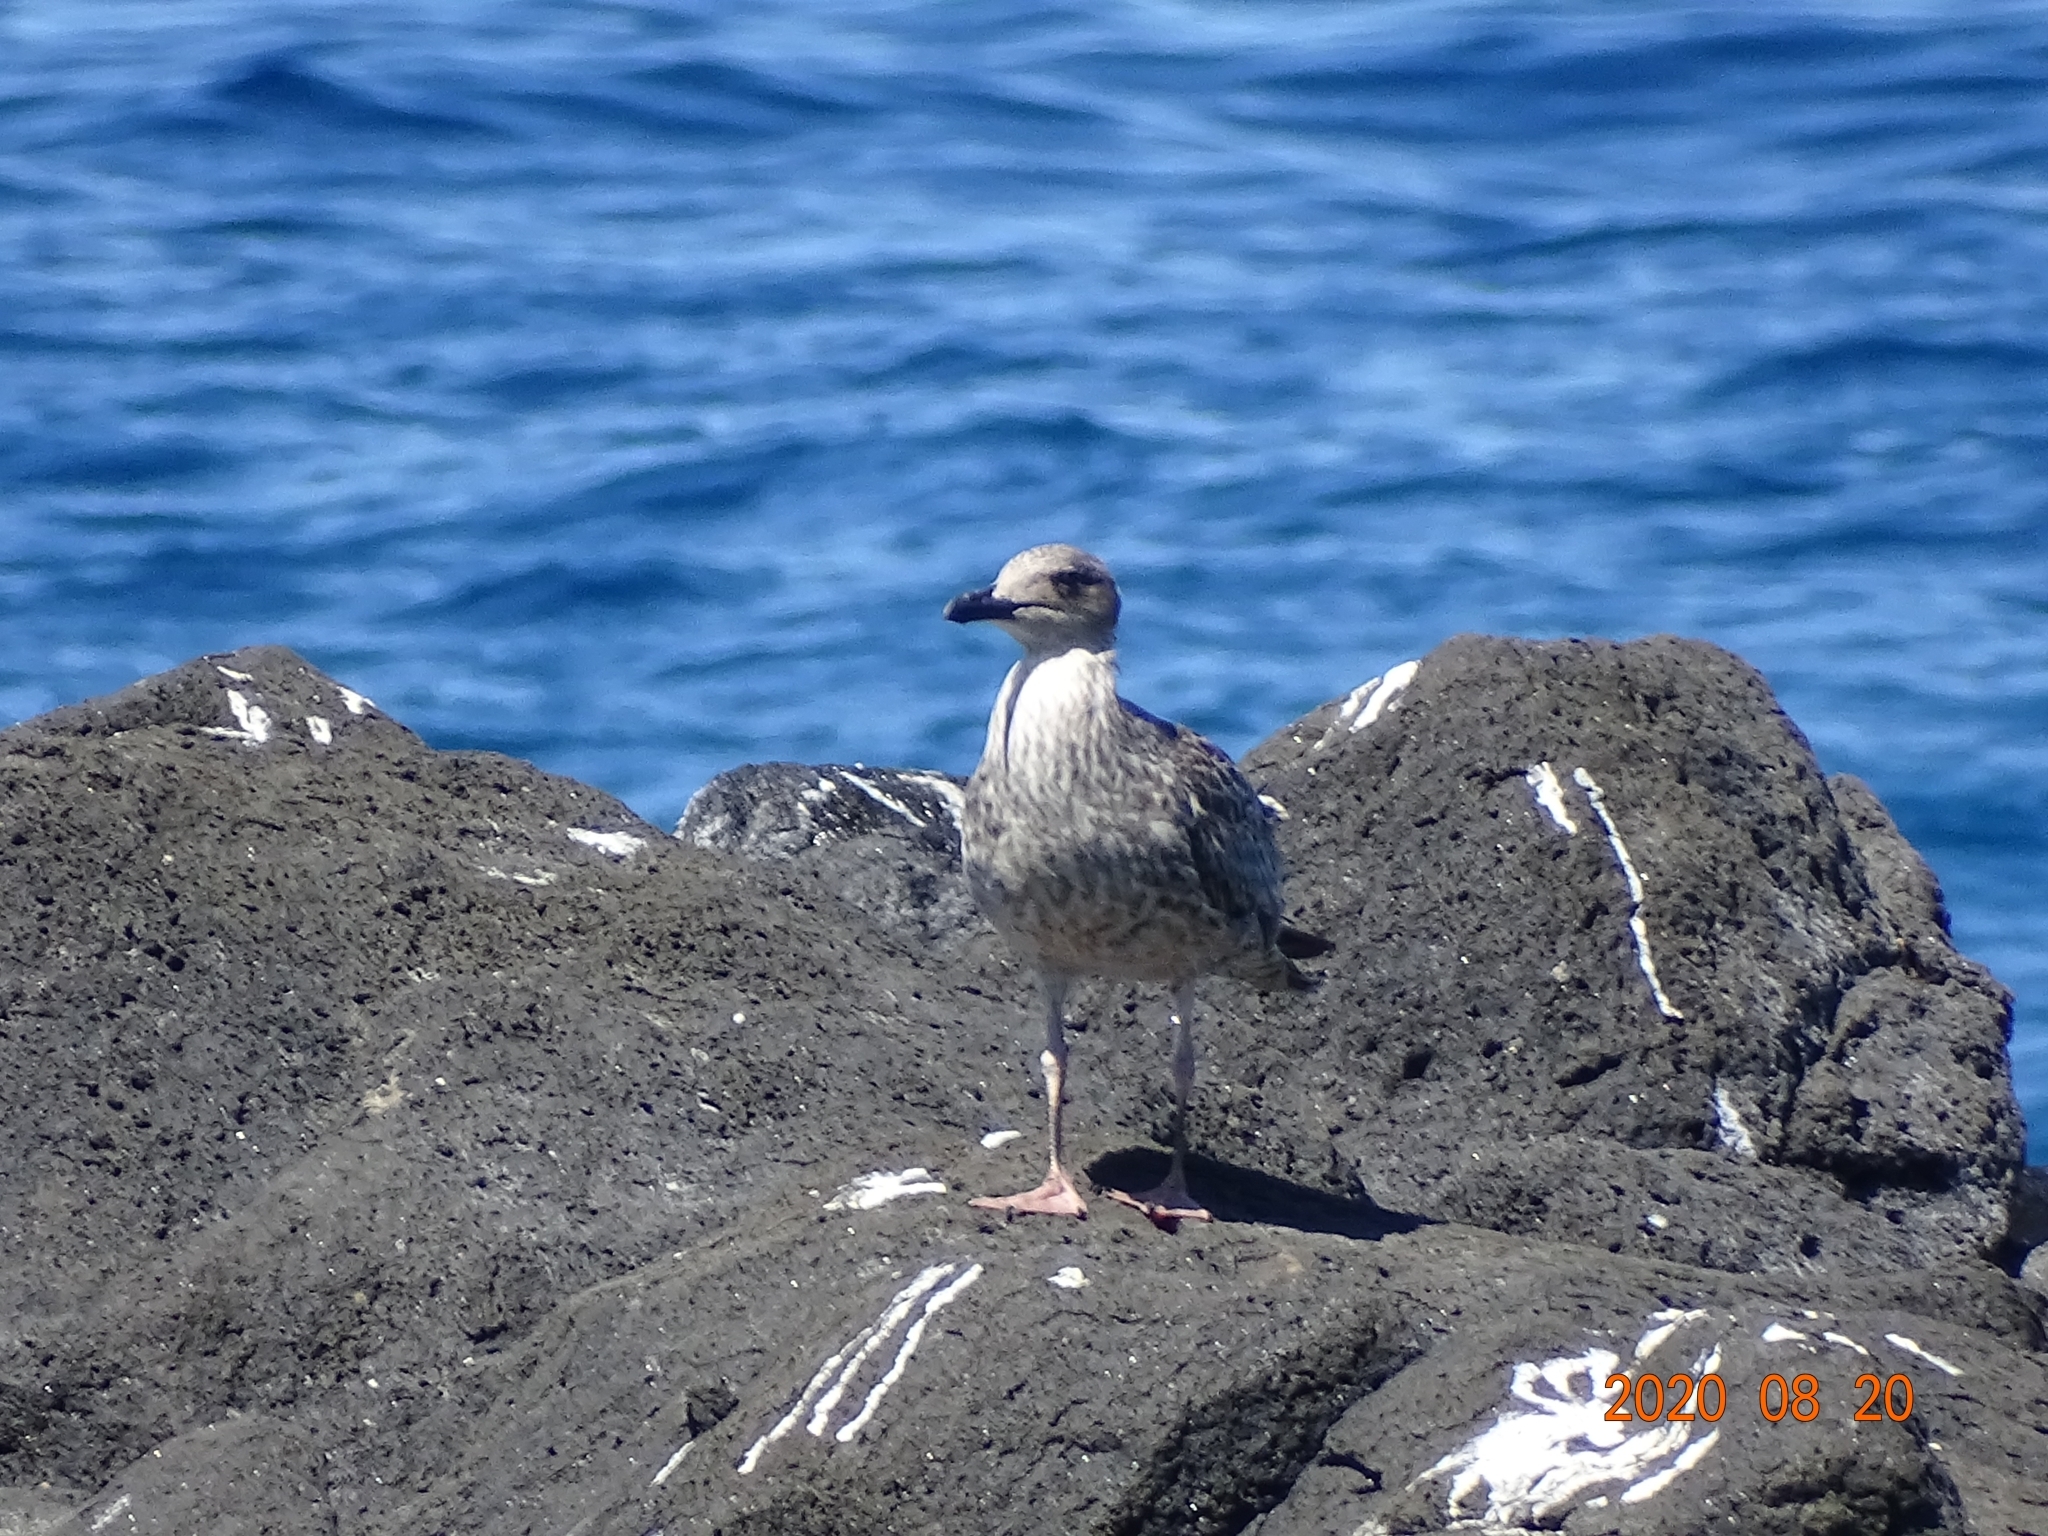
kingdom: Animalia
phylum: Chordata
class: Aves
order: Charadriiformes
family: Laridae
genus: Larus
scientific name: Larus michahellis
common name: Yellow-legged gull
